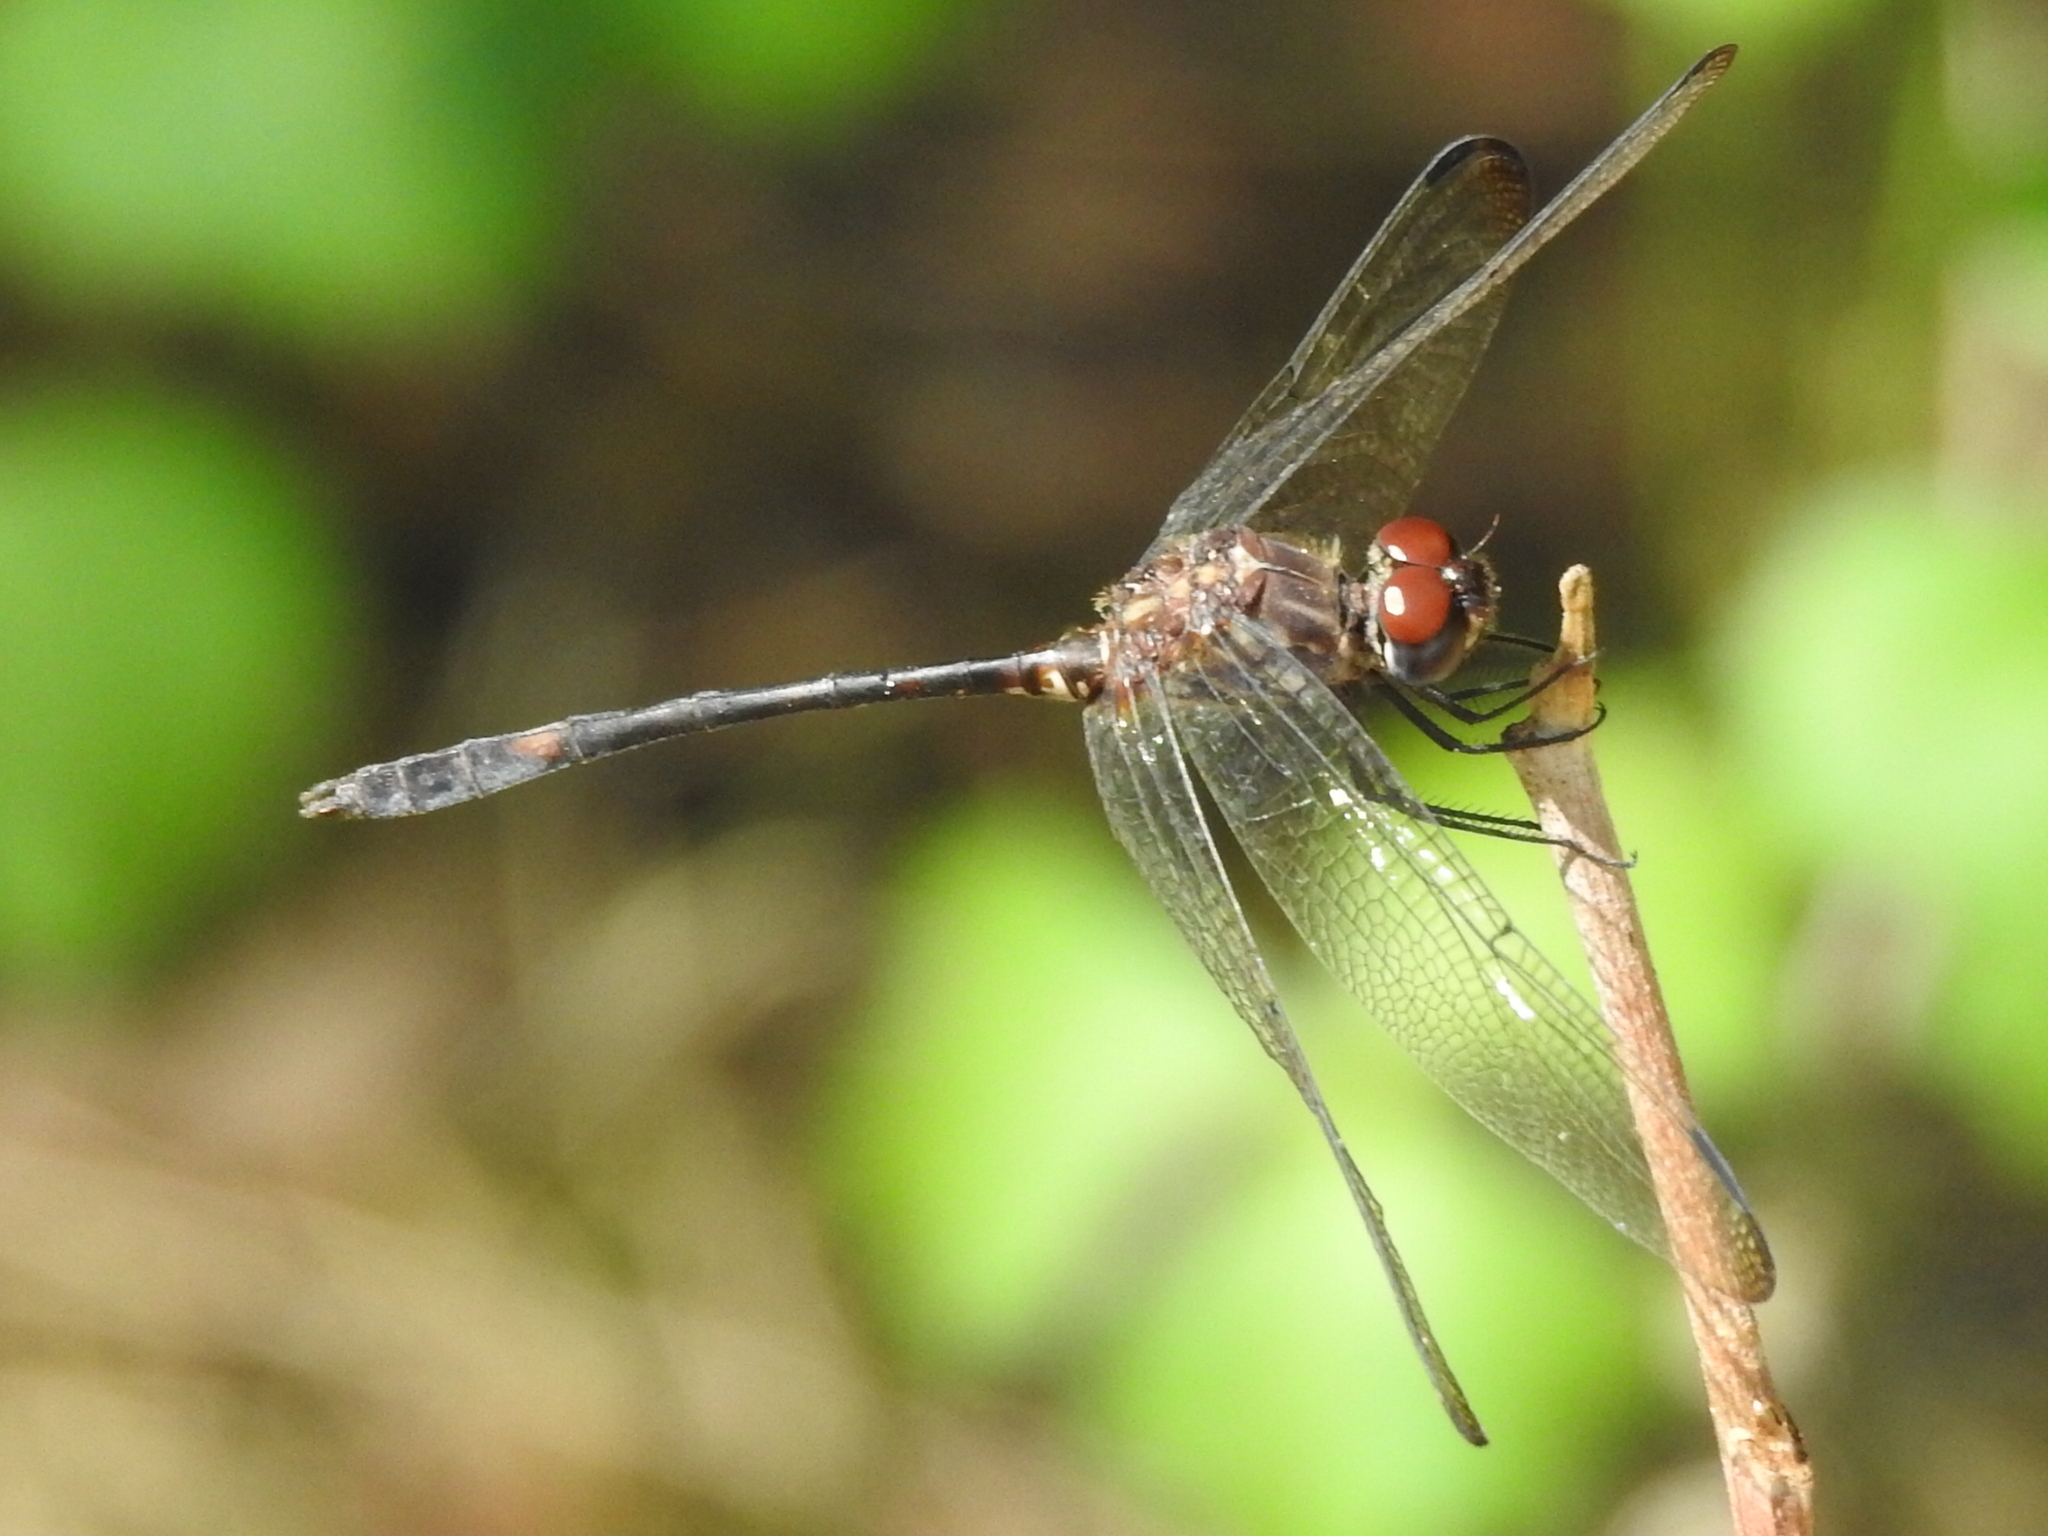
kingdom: Animalia
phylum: Arthropoda
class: Insecta
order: Odonata
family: Libellulidae
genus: Dythemis
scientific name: Dythemis velox
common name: Swift setwing
